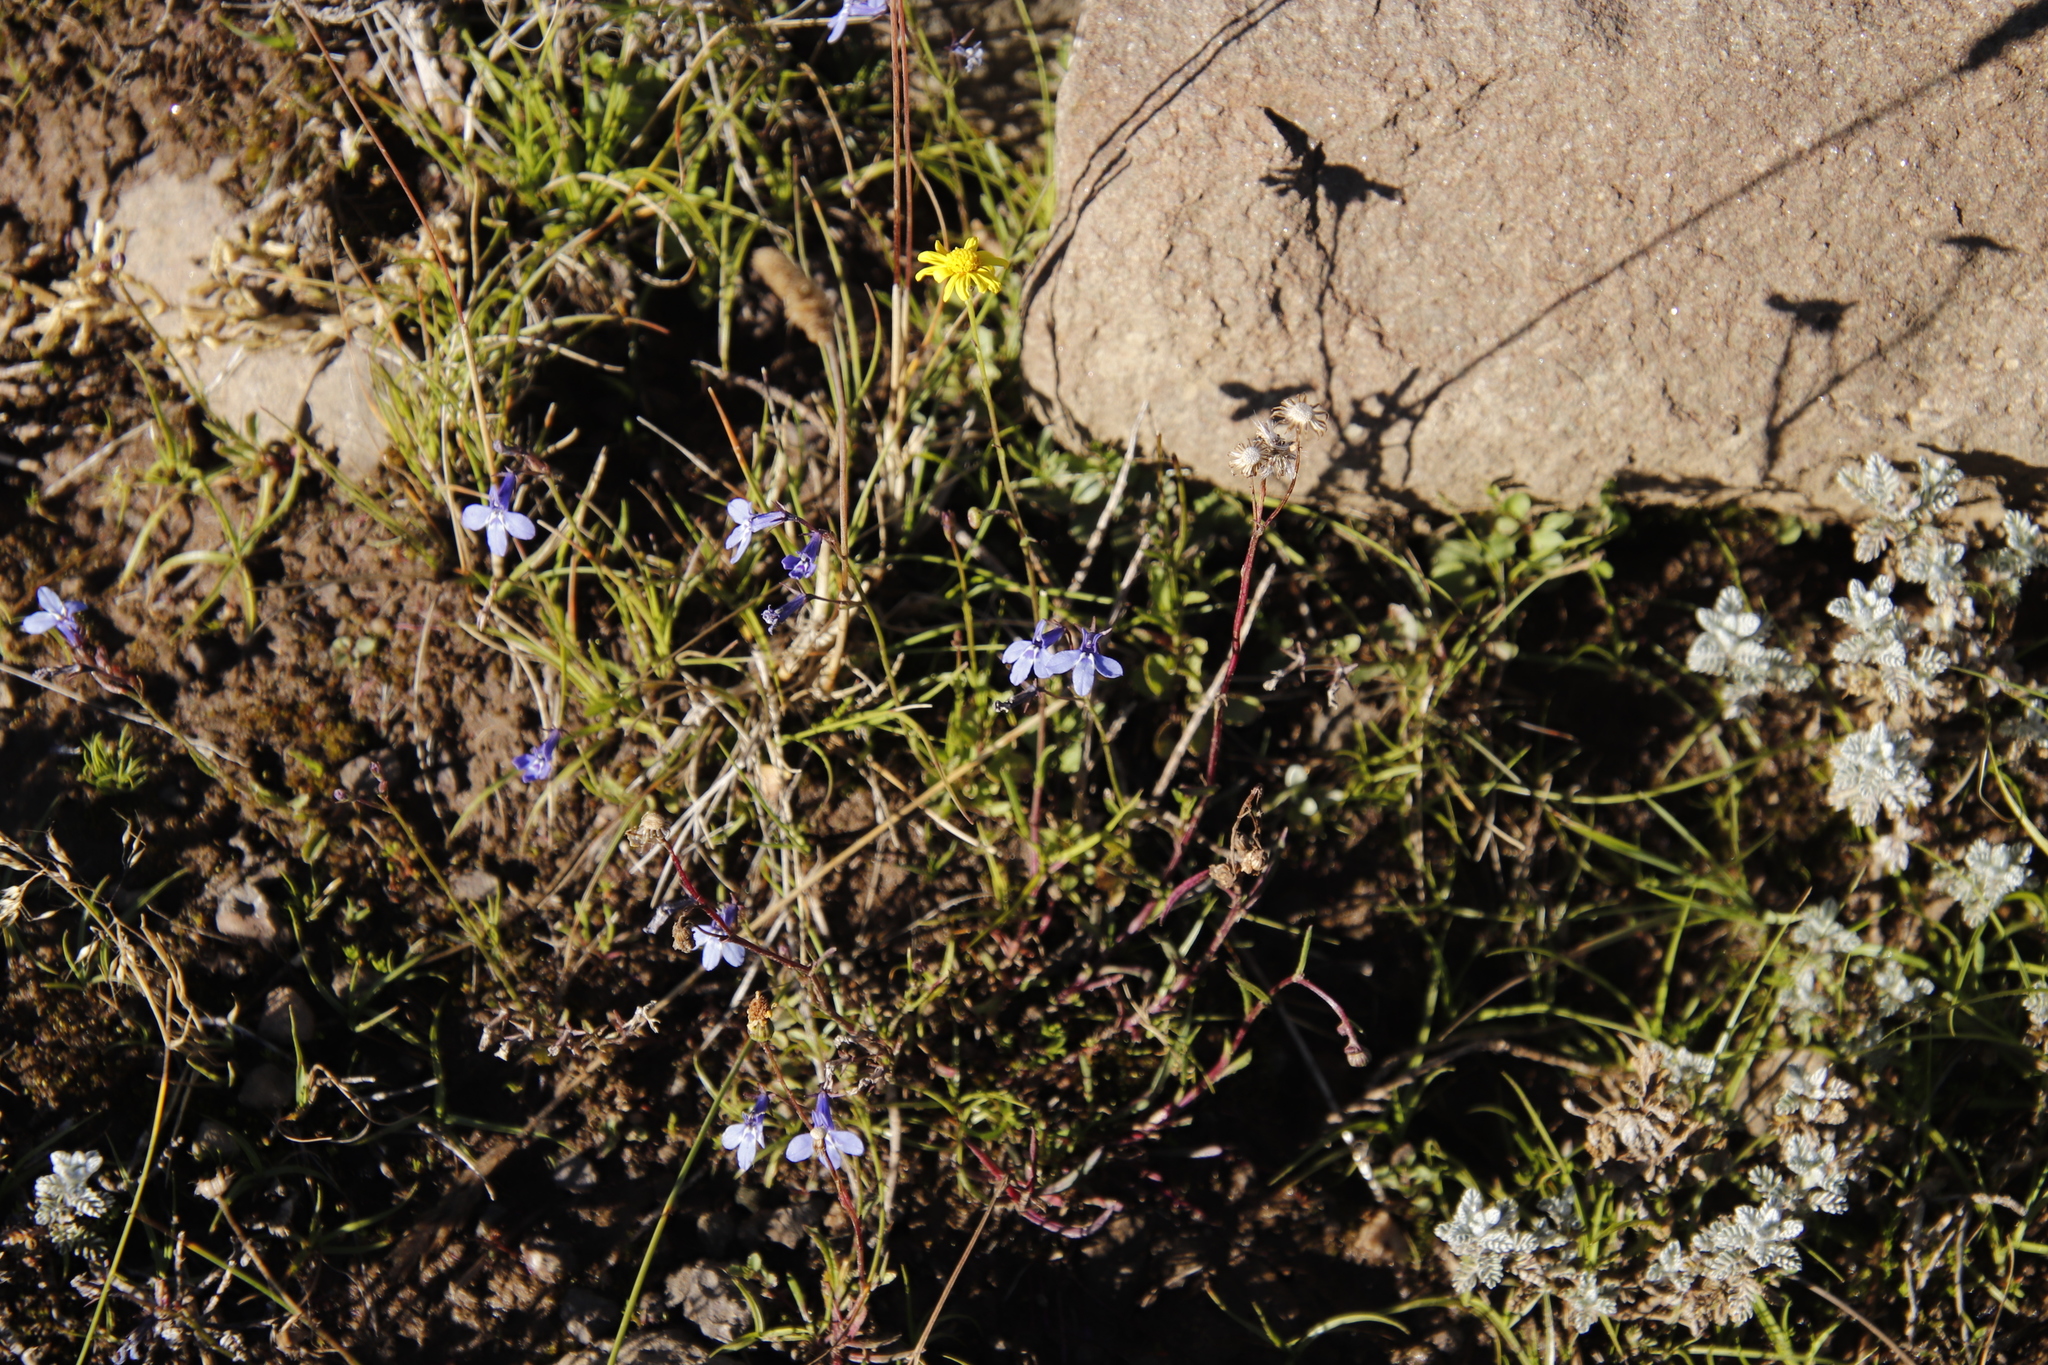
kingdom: Plantae
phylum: Tracheophyta
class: Magnoliopsida
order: Asterales
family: Campanulaceae
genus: Lobelia
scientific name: Lobelia flaccida
